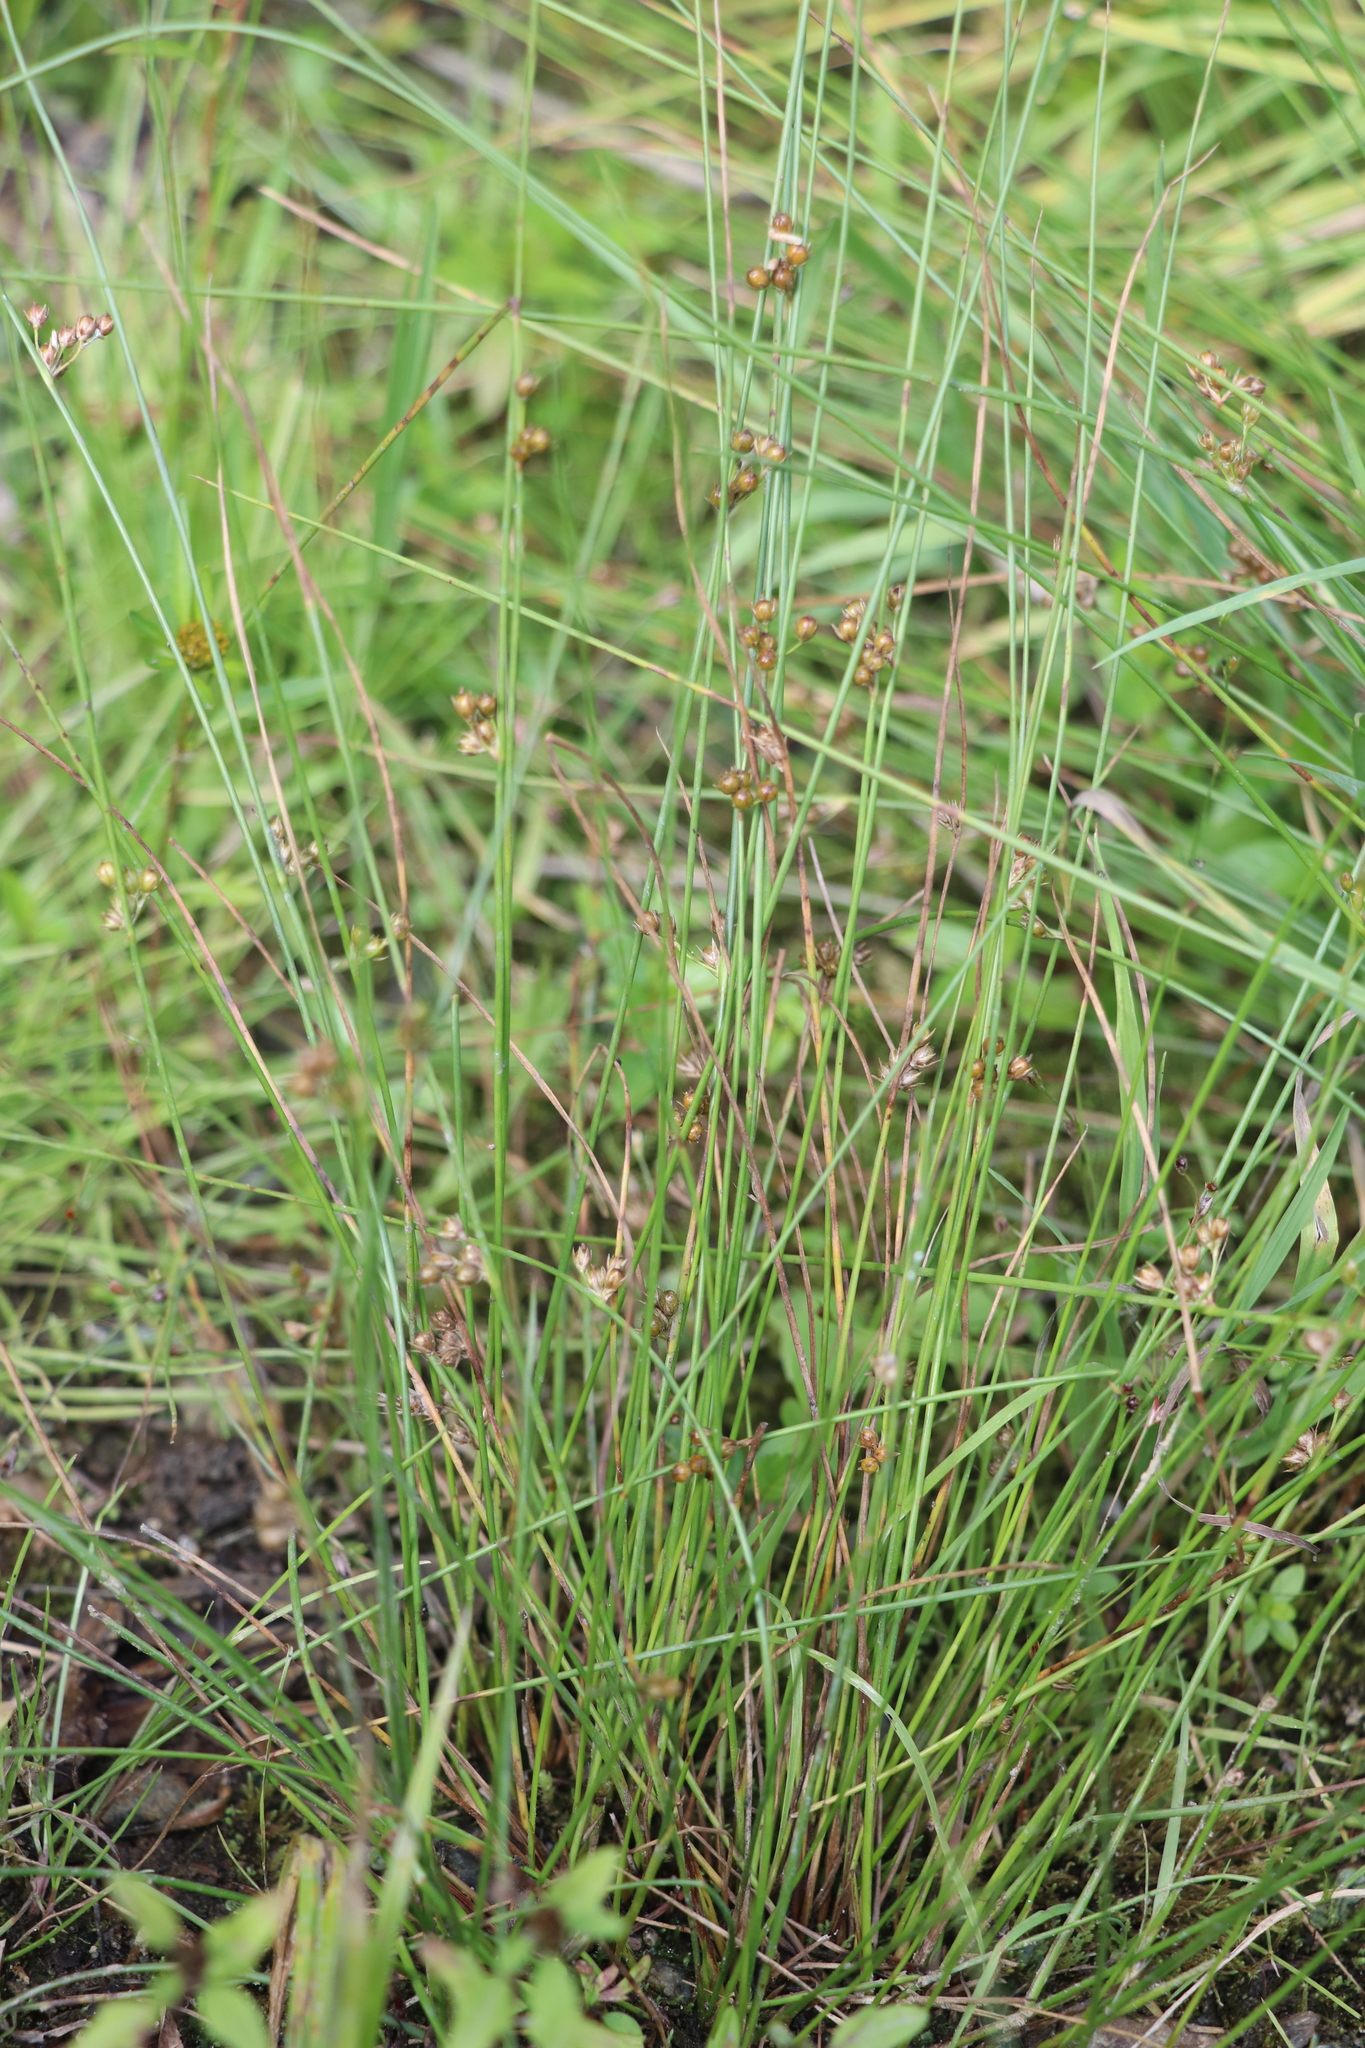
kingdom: Plantae
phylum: Tracheophyta
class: Liliopsida
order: Poales
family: Juncaceae
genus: Juncus
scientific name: Juncus filiformis
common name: Thread rush
